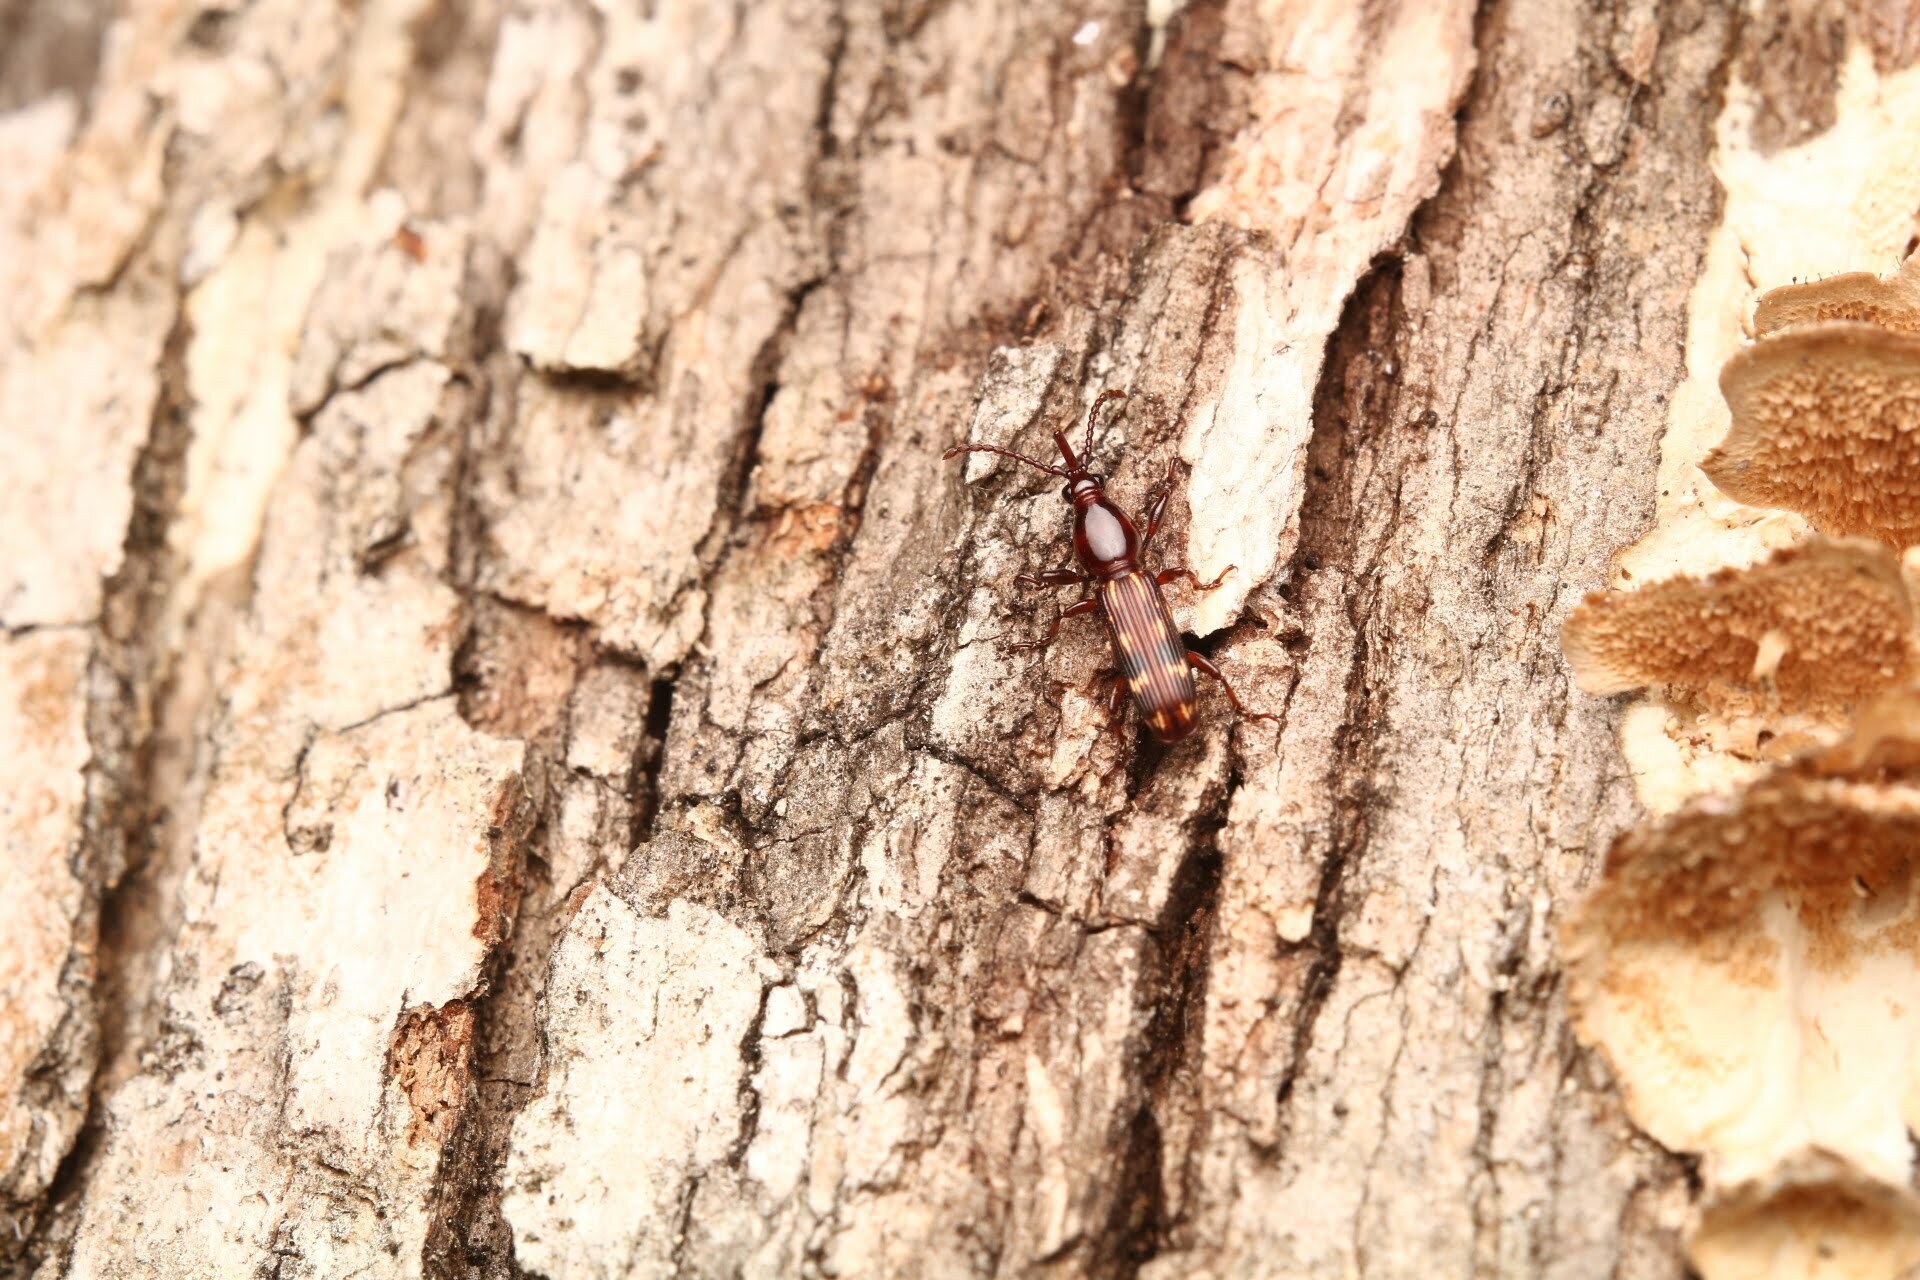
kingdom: Animalia
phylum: Arthropoda
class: Insecta
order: Coleoptera
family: Brentidae
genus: Arrenodes
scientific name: Arrenodes minutus
